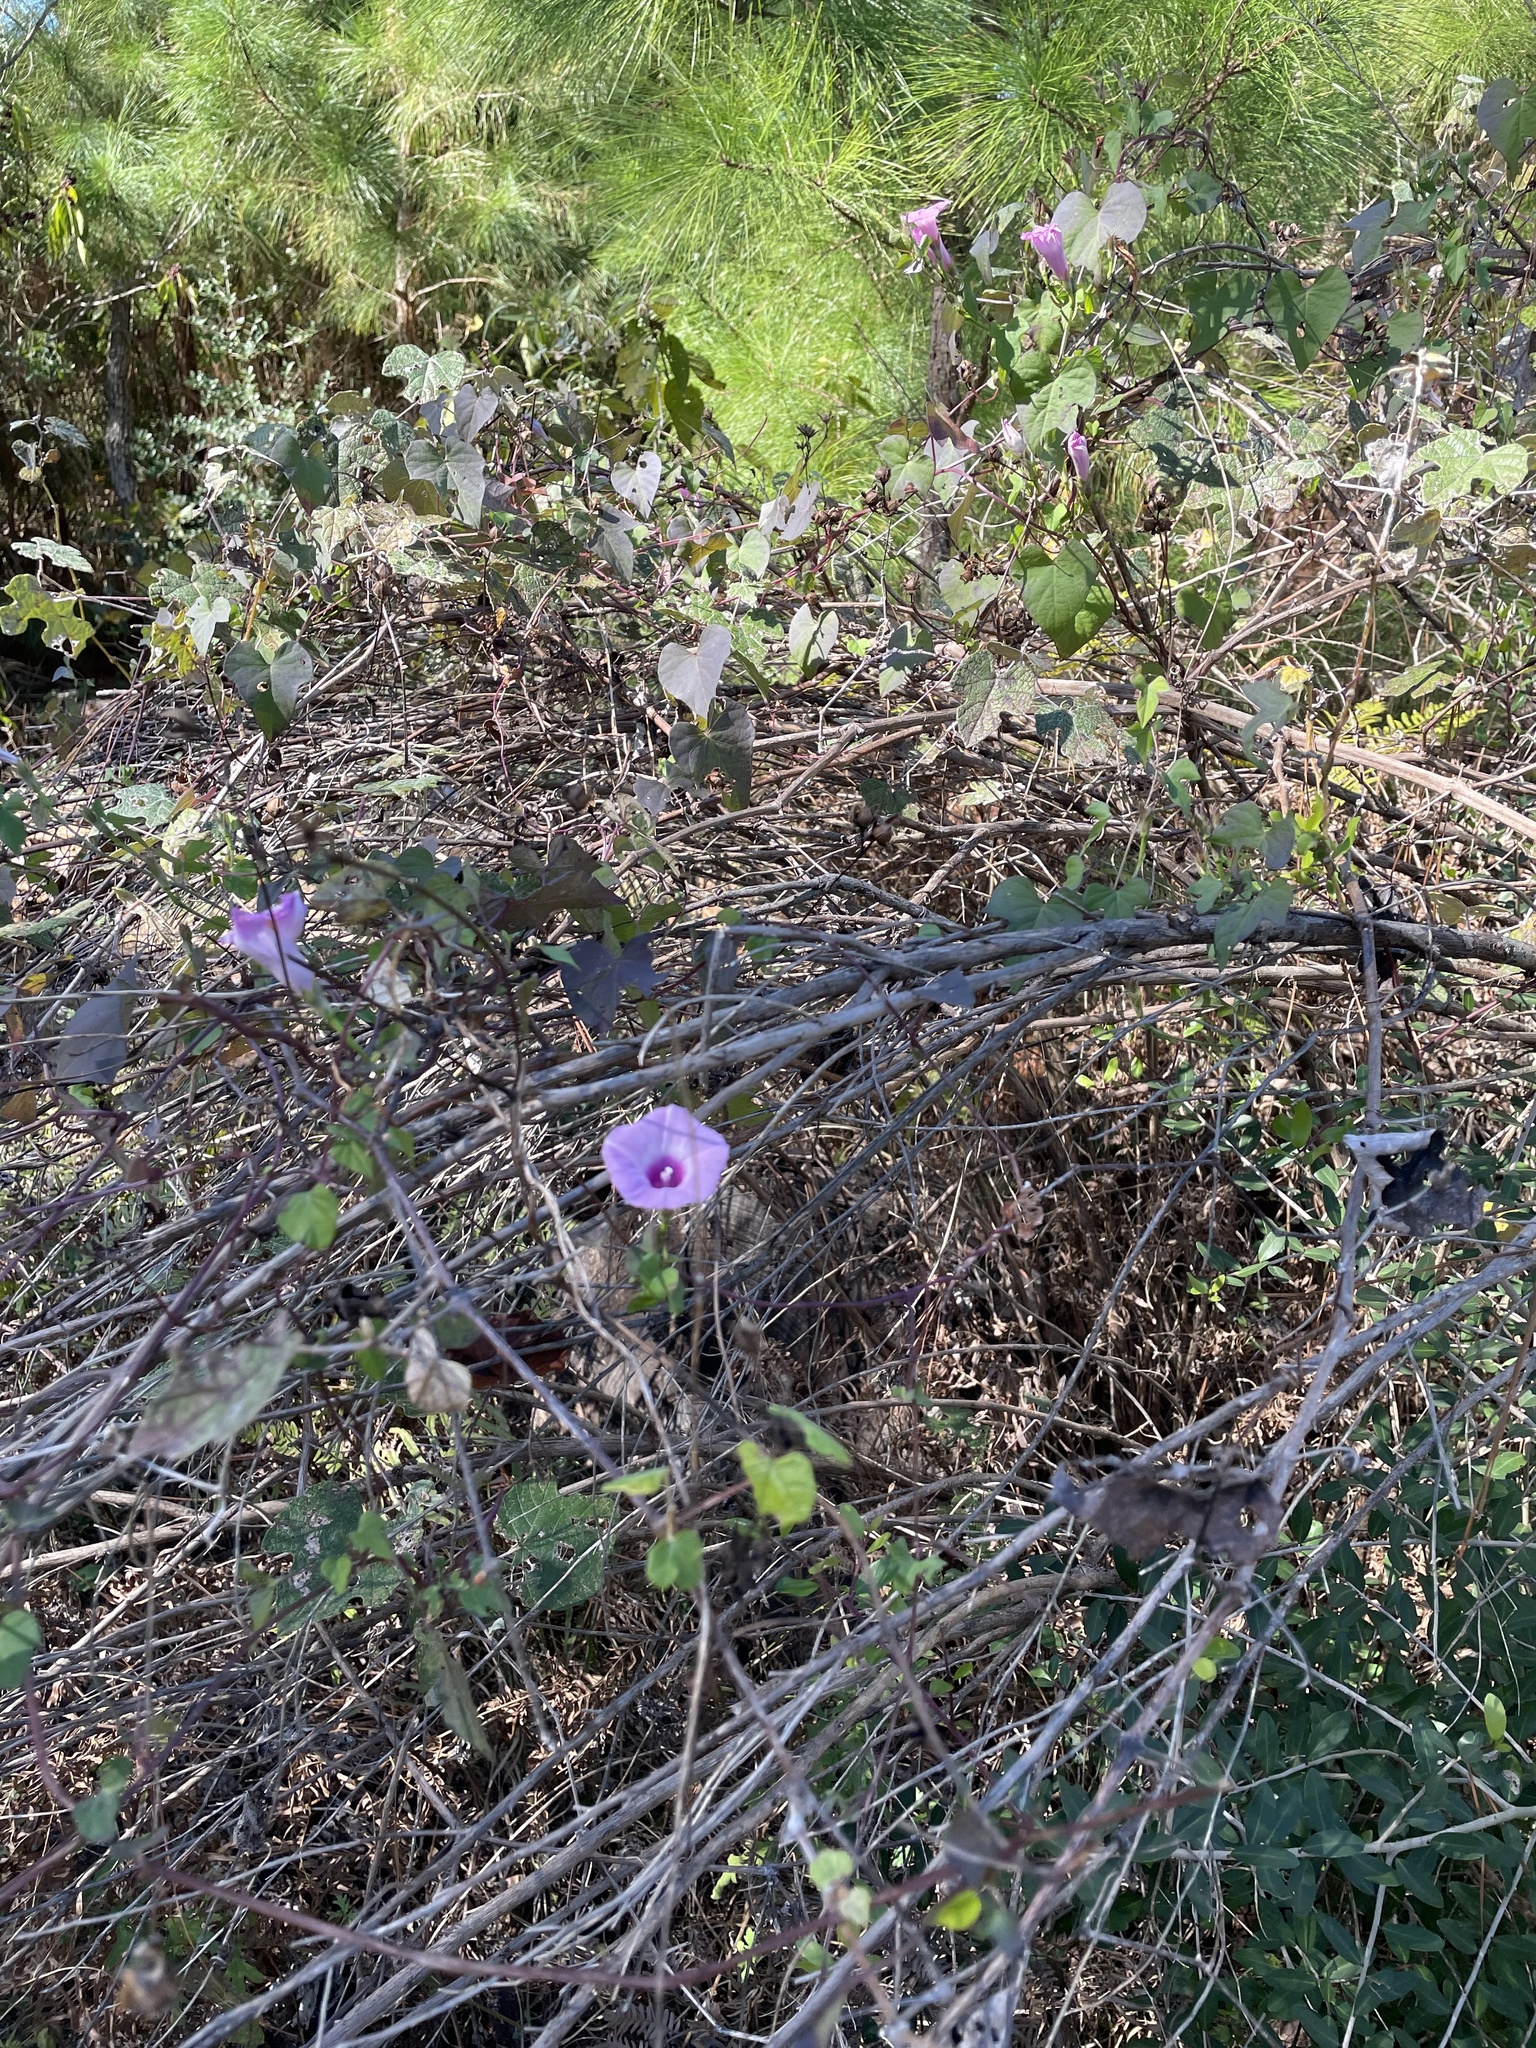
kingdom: Plantae
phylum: Tracheophyta
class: Magnoliopsida
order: Solanales
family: Convolvulaceae
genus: Ipomoea
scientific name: Ipomoea cordatotriloba
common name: Cotton morning glory
